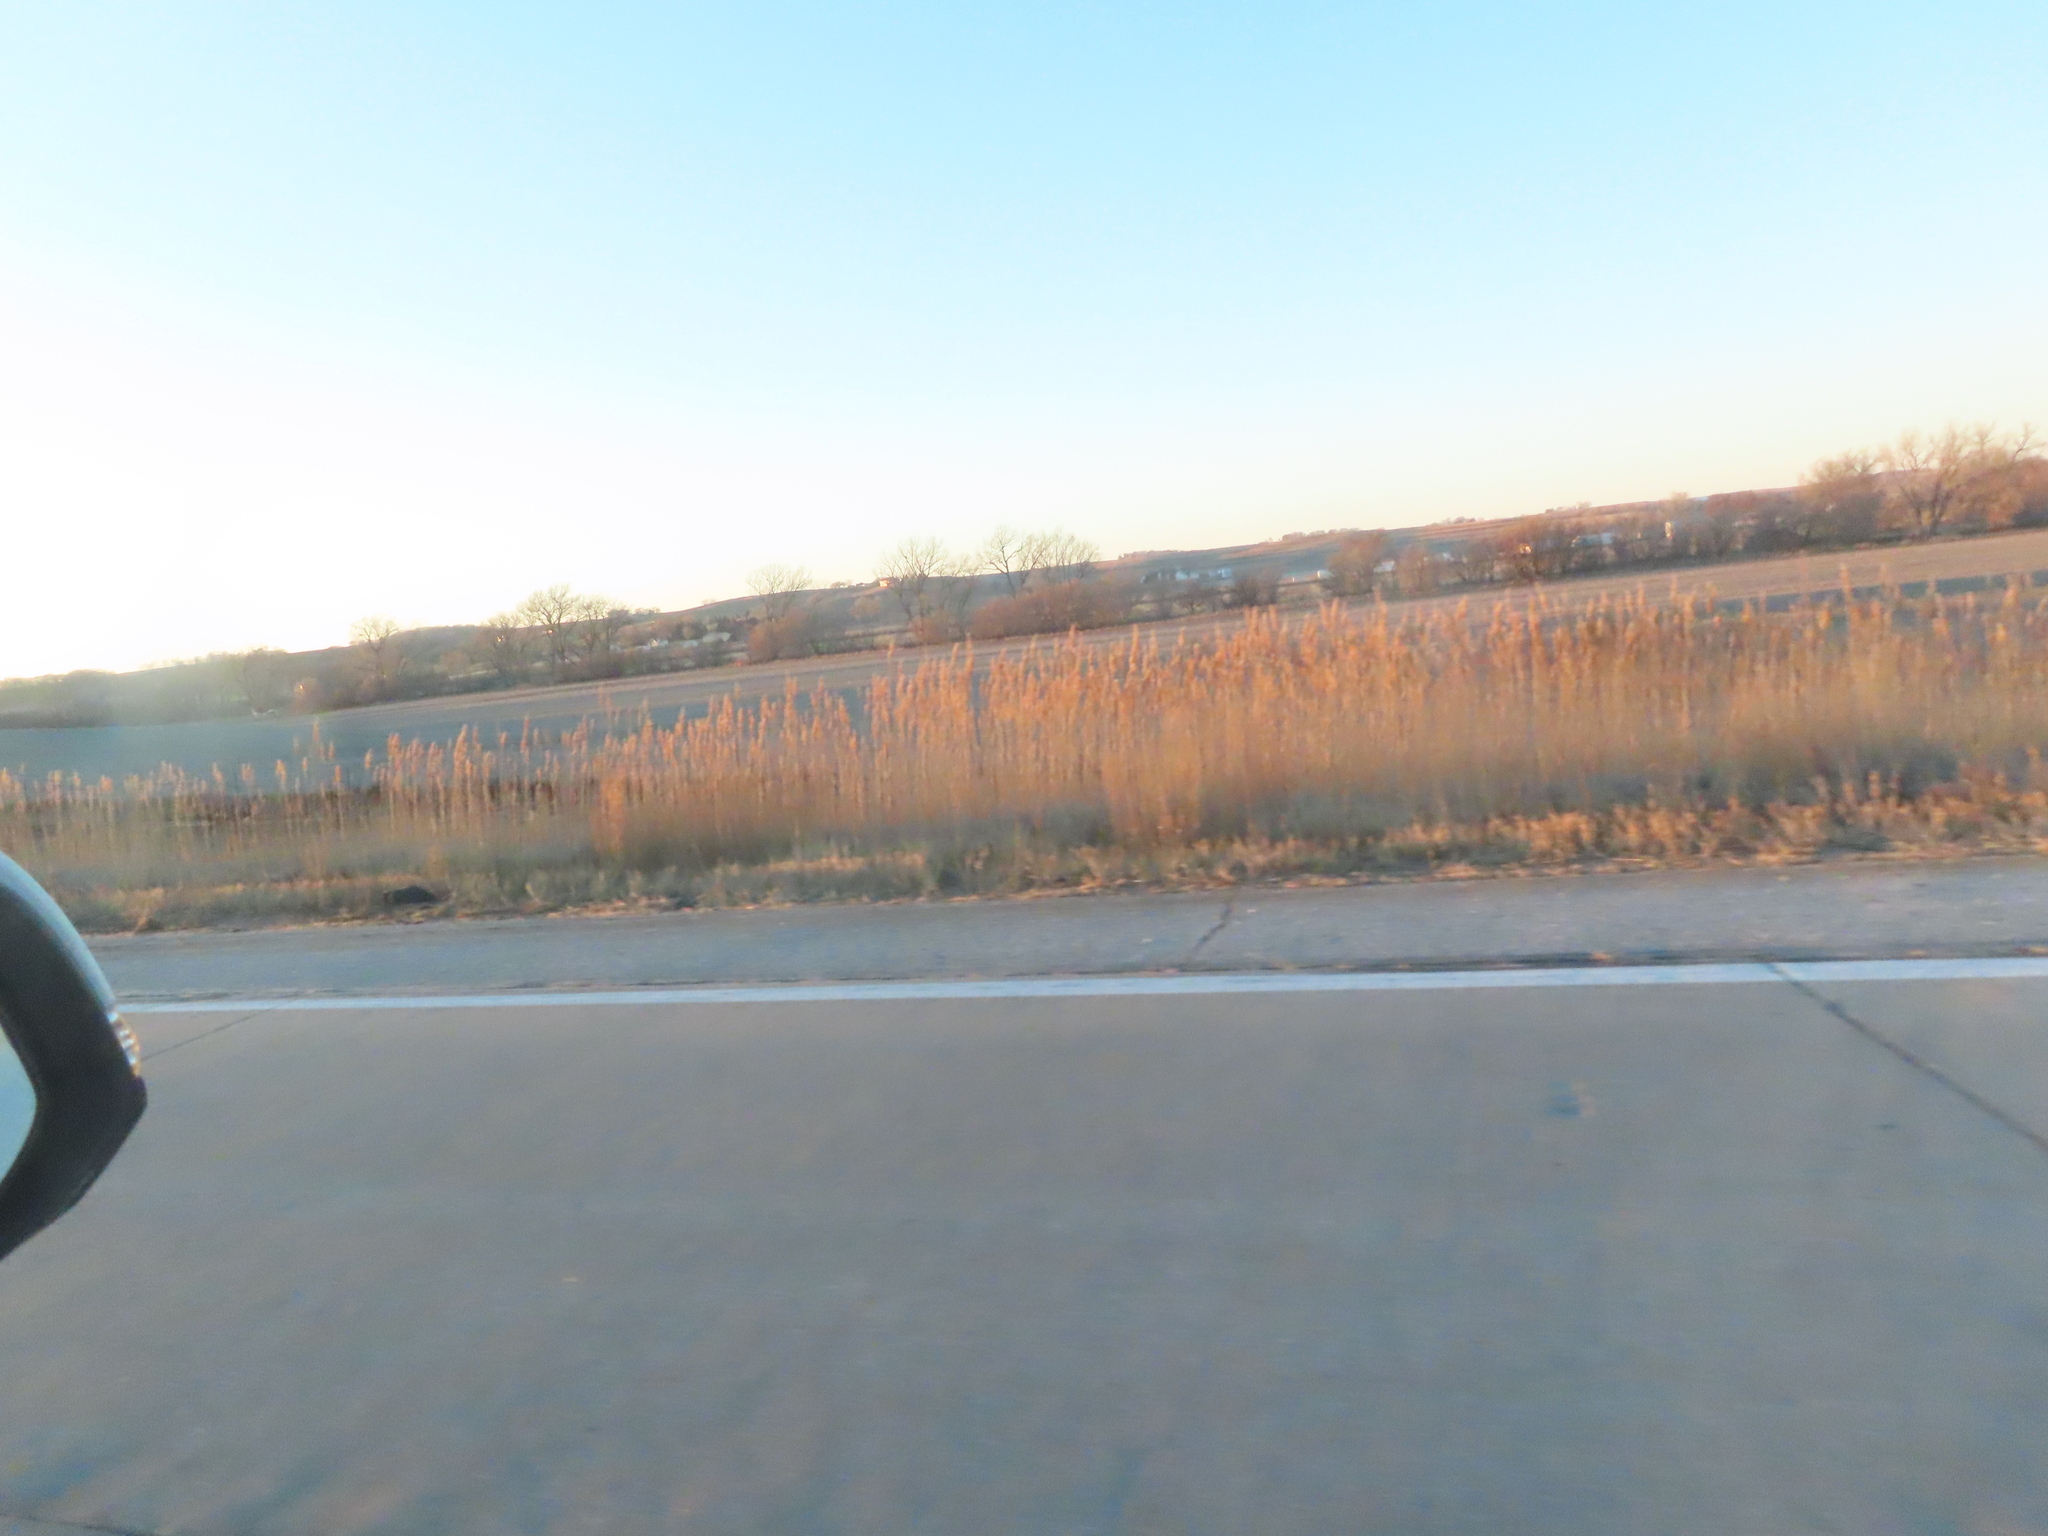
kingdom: Plantae
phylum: Tracheophyta
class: Liliopsida
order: Poales
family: Poaceae
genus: Phragmites
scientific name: Phragmites australis
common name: Common reed
